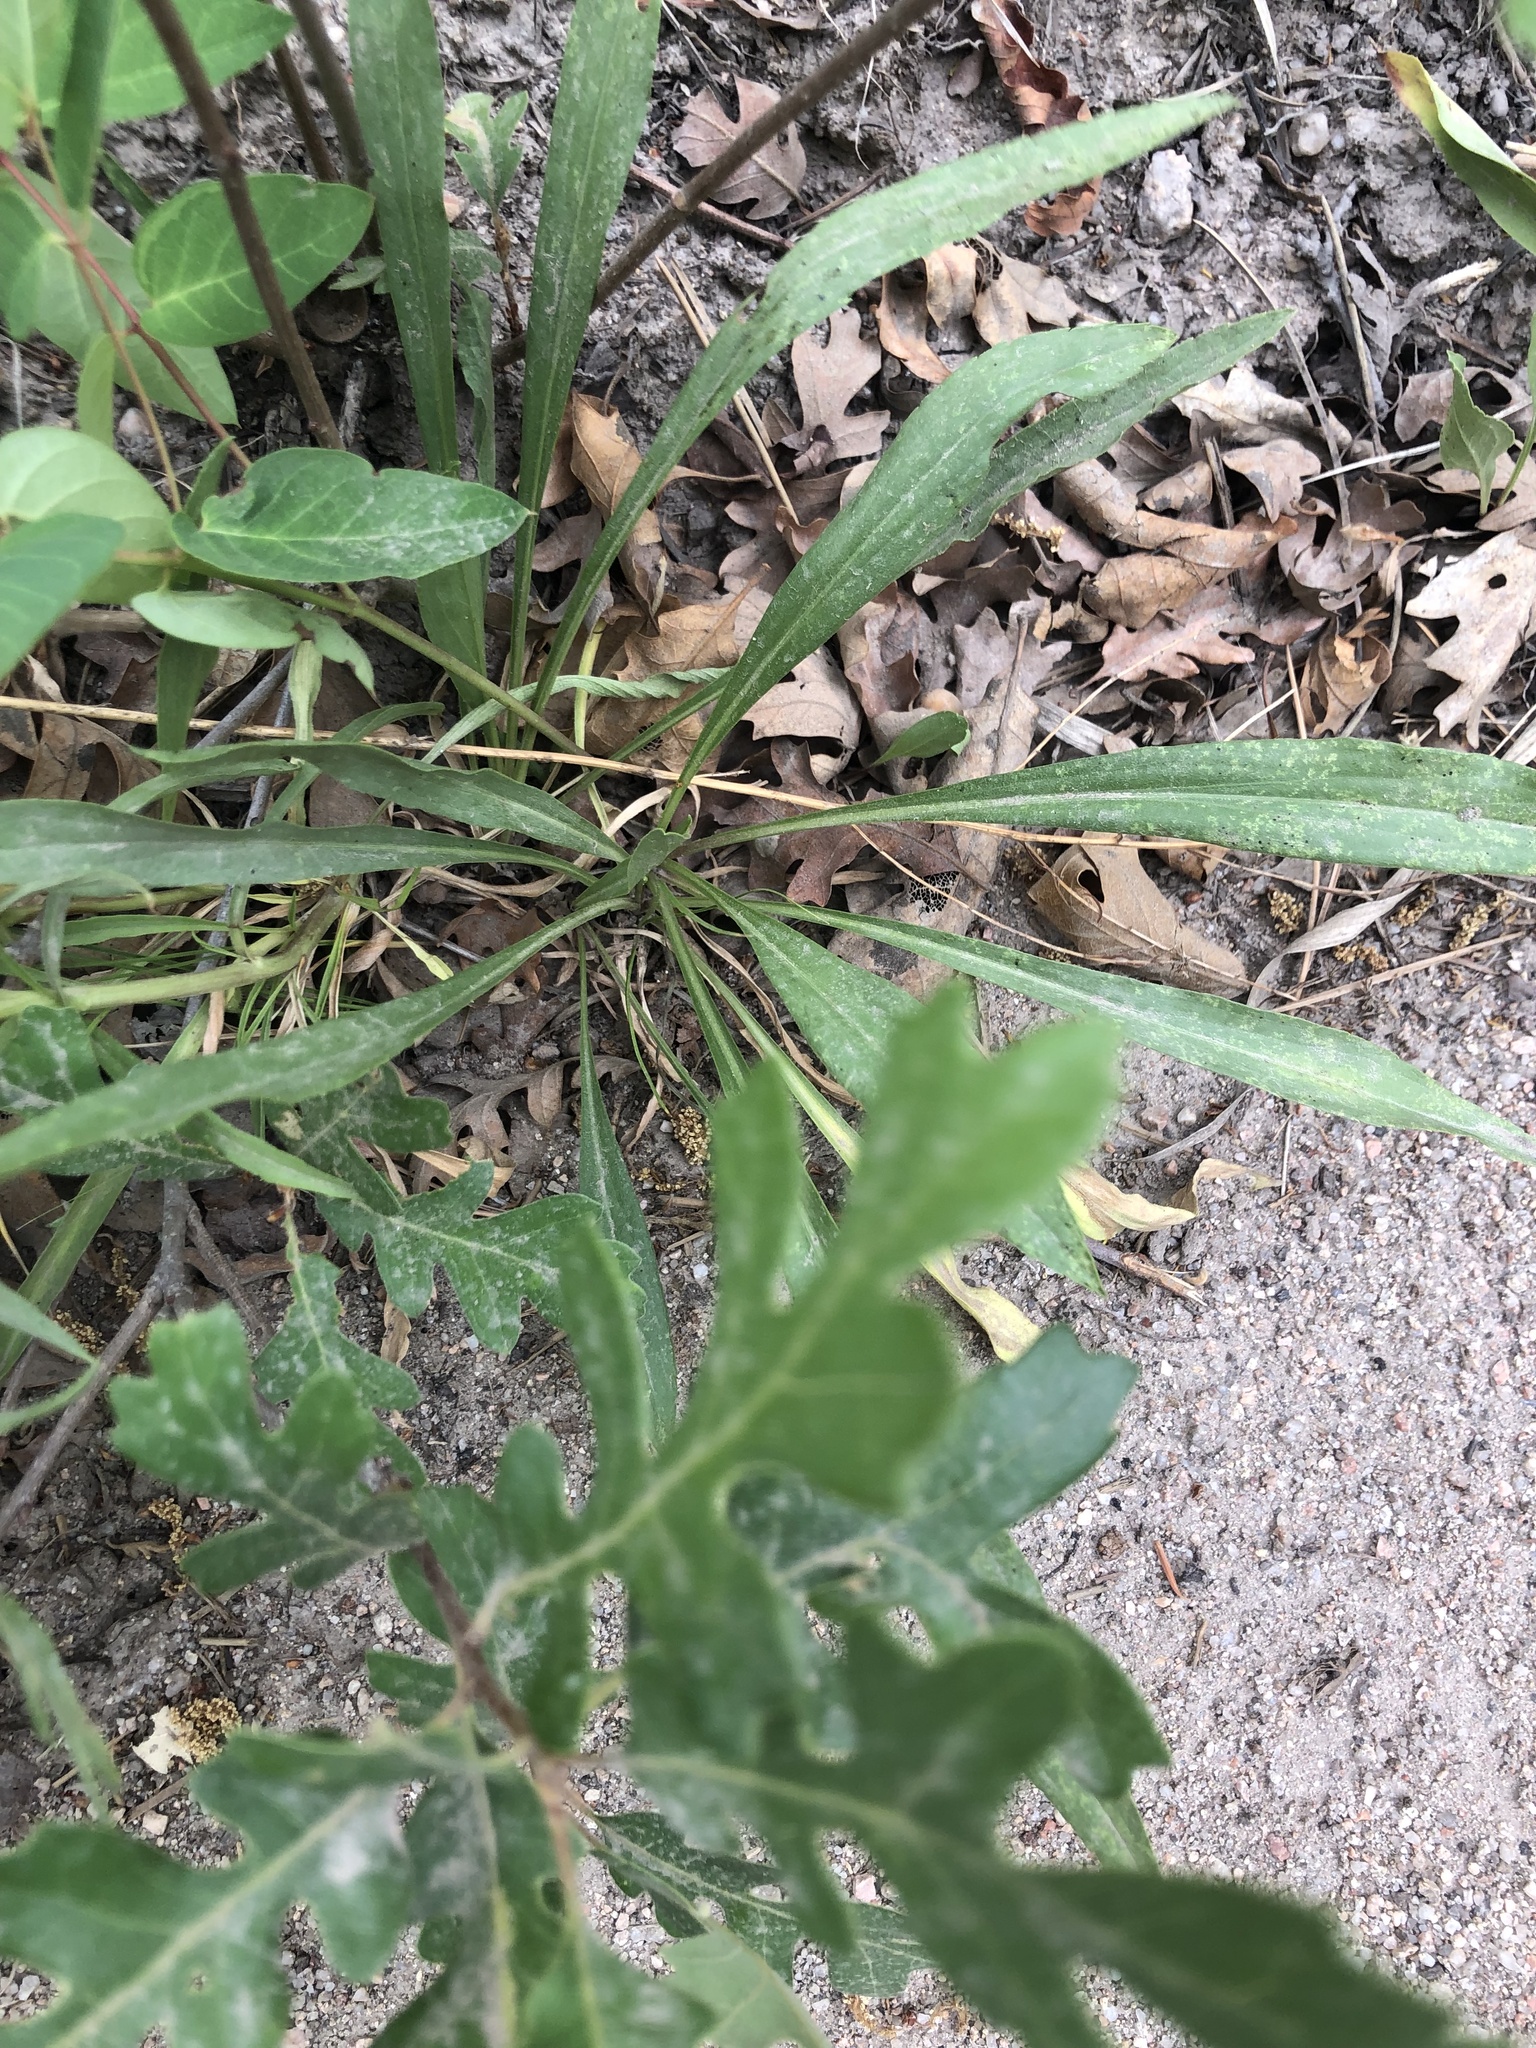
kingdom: Plantae
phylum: Tracheophyta
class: Magnoliopsida
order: Asterales
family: Asteraceae
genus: Solidago
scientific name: Solidago missouriensis
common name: Prairie goldenrod
